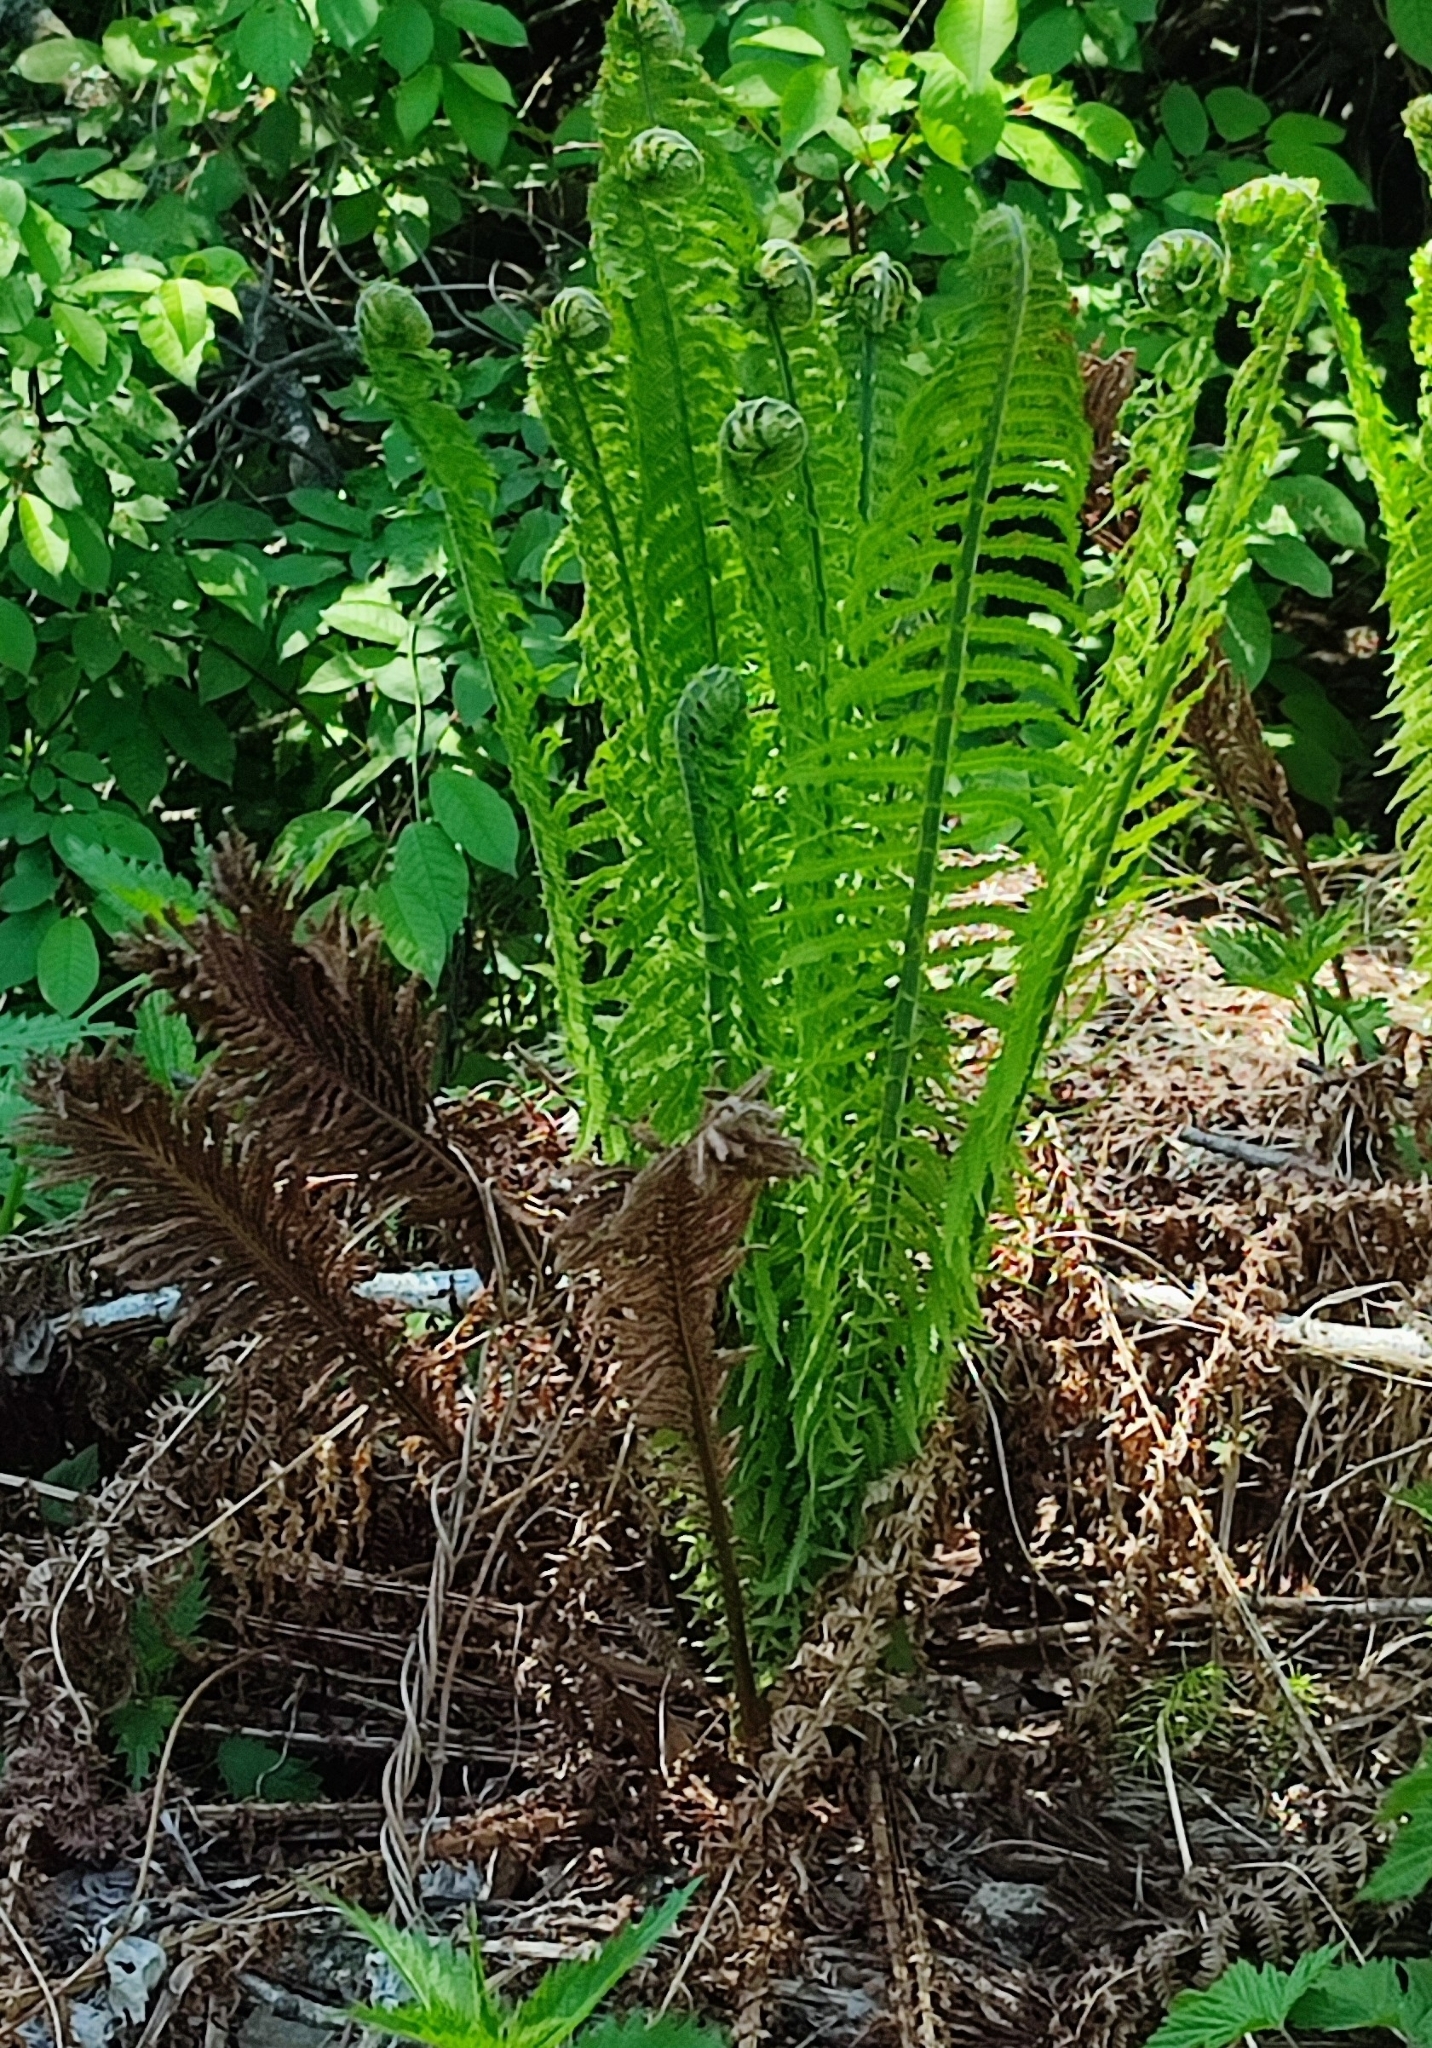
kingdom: Plantae
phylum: Tracheophyta
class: Polypodiopsida
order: Polypodiales
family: Onocleaceae
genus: Matteuccia
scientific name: Matteuccia struthiopteris
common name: Ostrich fern
